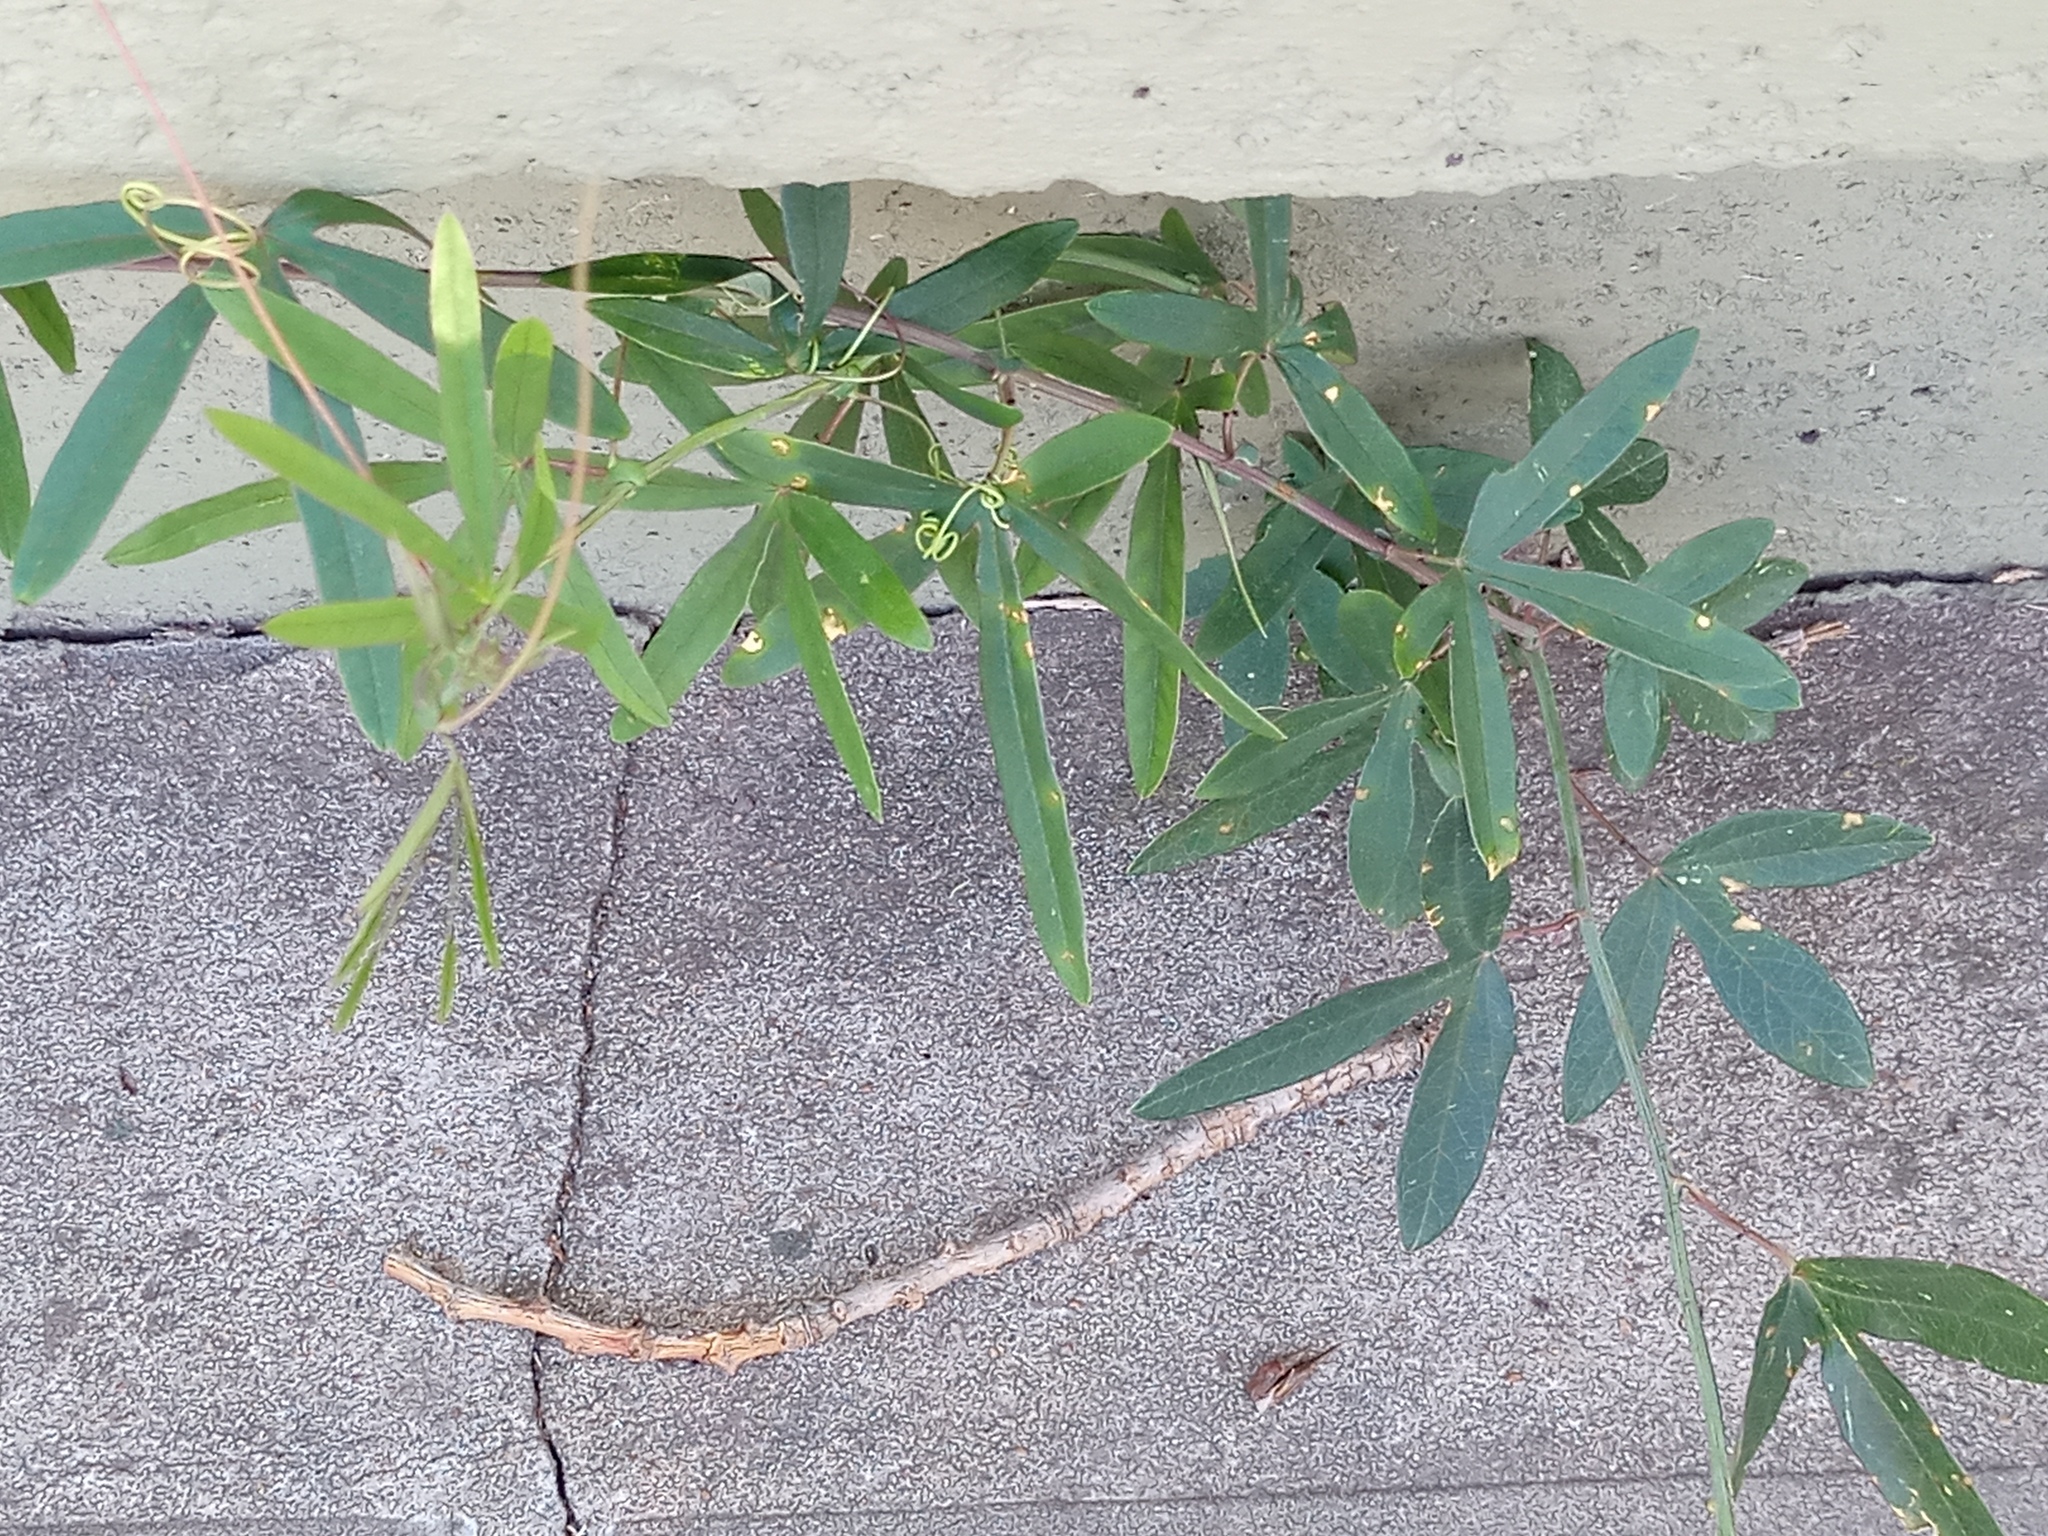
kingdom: Plantae
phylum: Tracheophyta
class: Magnoliopsida
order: Malpighiales
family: Passifloraceae
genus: Passiflora
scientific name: Passiflora caerulea
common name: Blue passionflower
